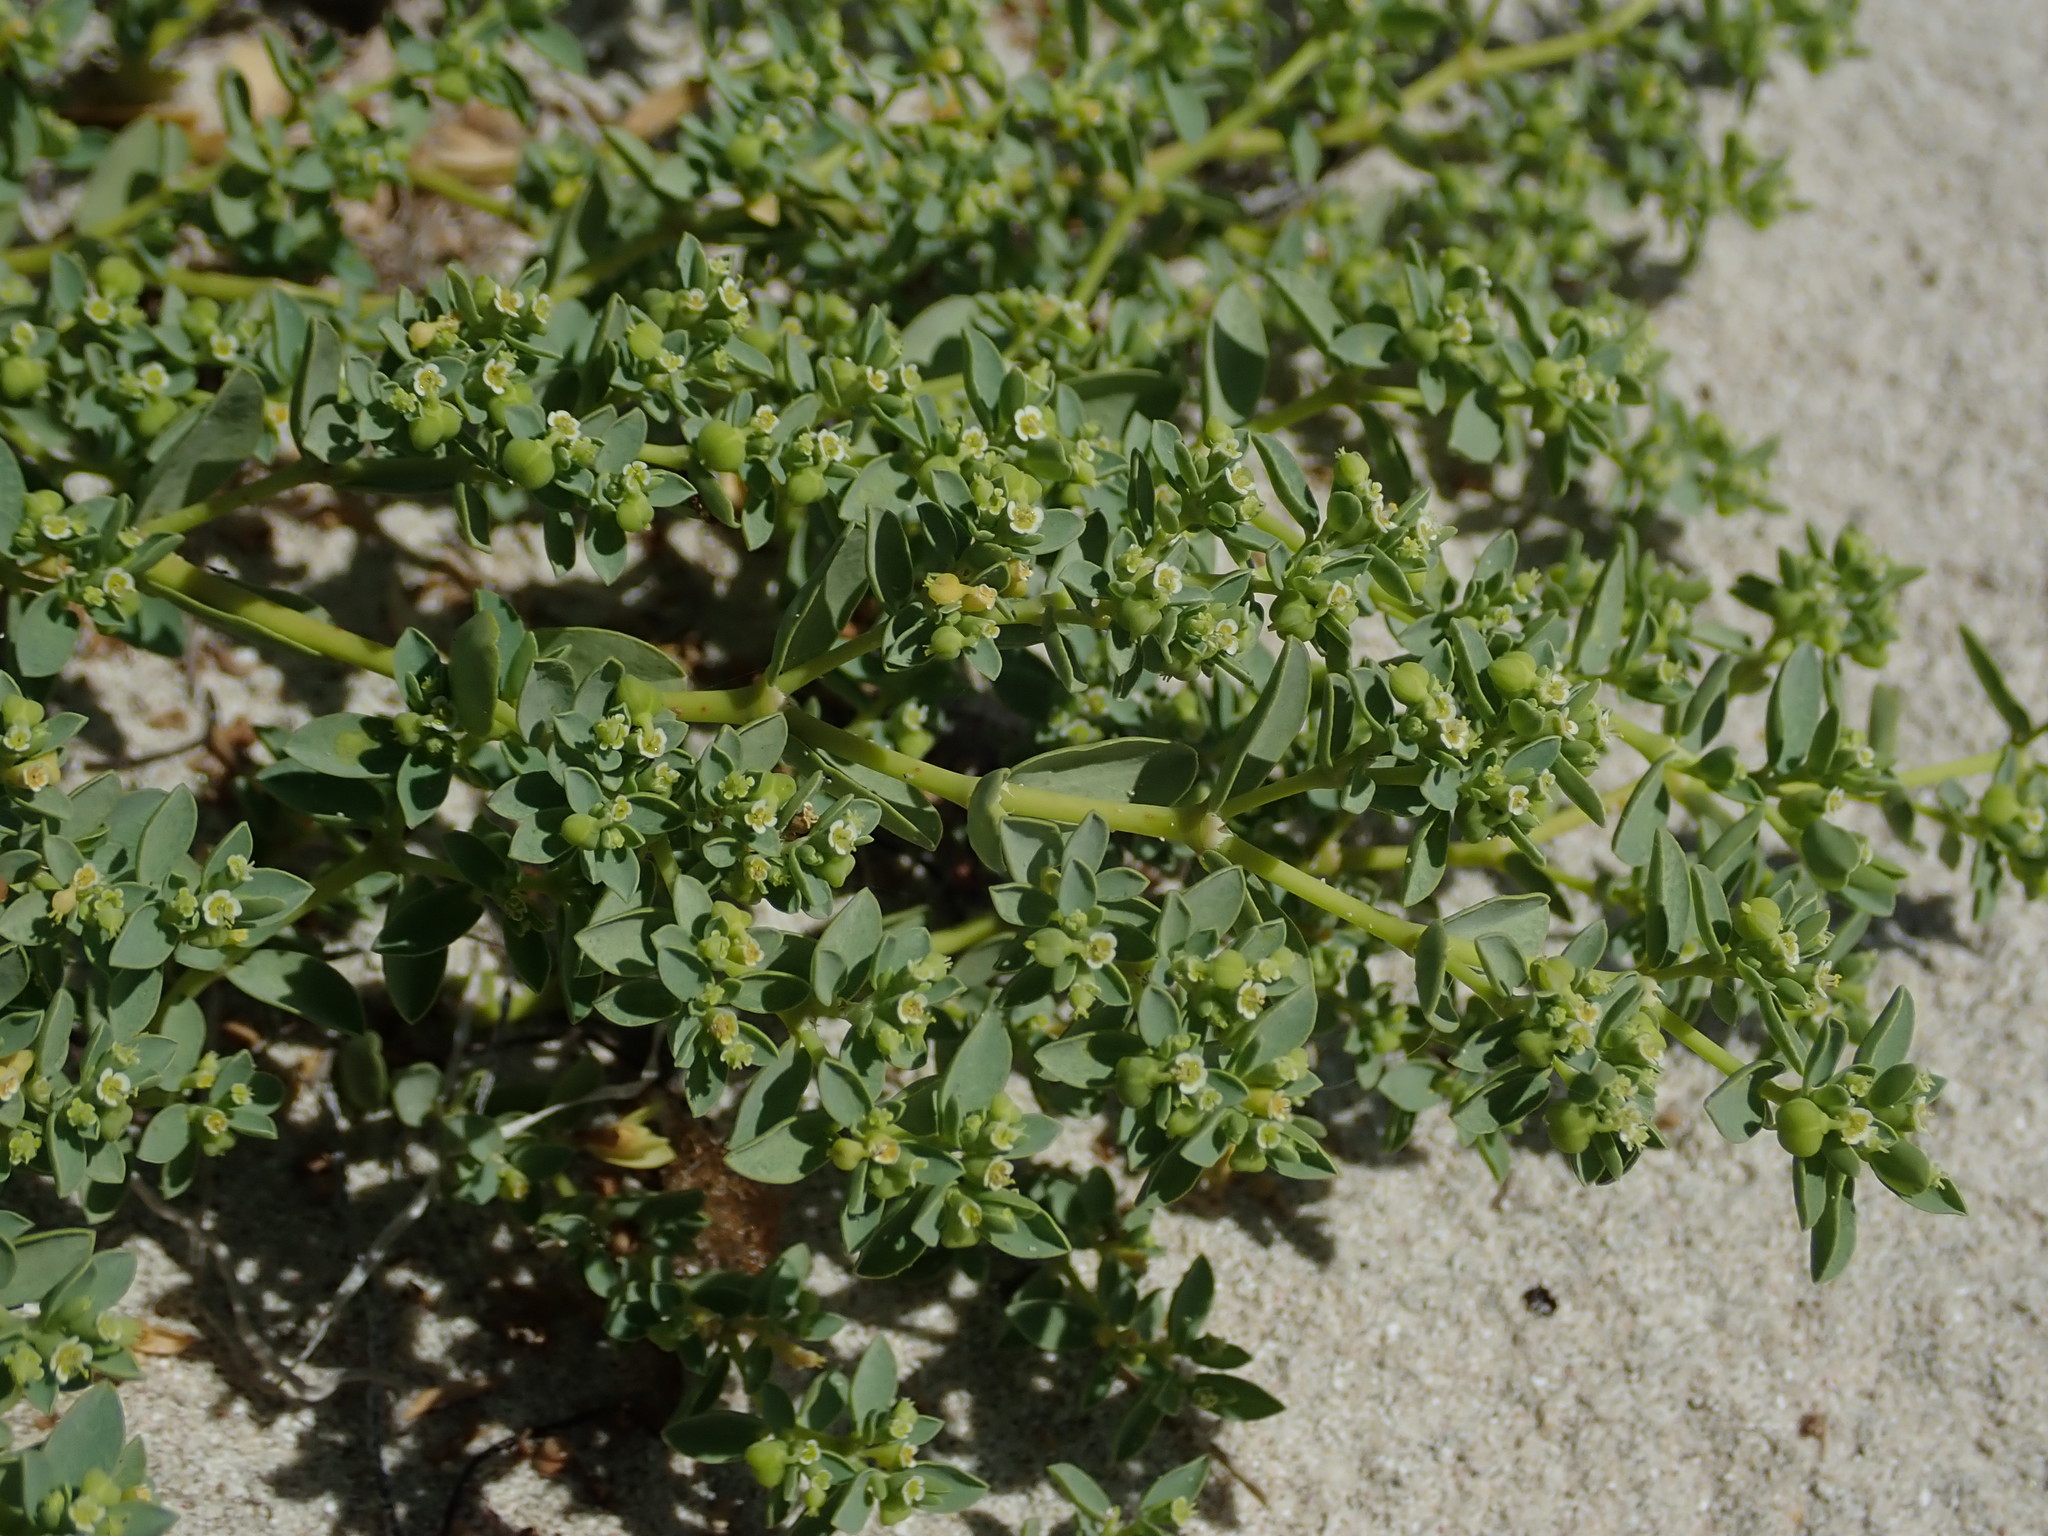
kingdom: Plantae
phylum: Tracheophyta
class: Magnoliopsida
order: Malpighiales
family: Euphorbiaceae
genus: Euphorbia
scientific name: Euphorbia mesembryanthemifolia
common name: Coastal beach sandmat
